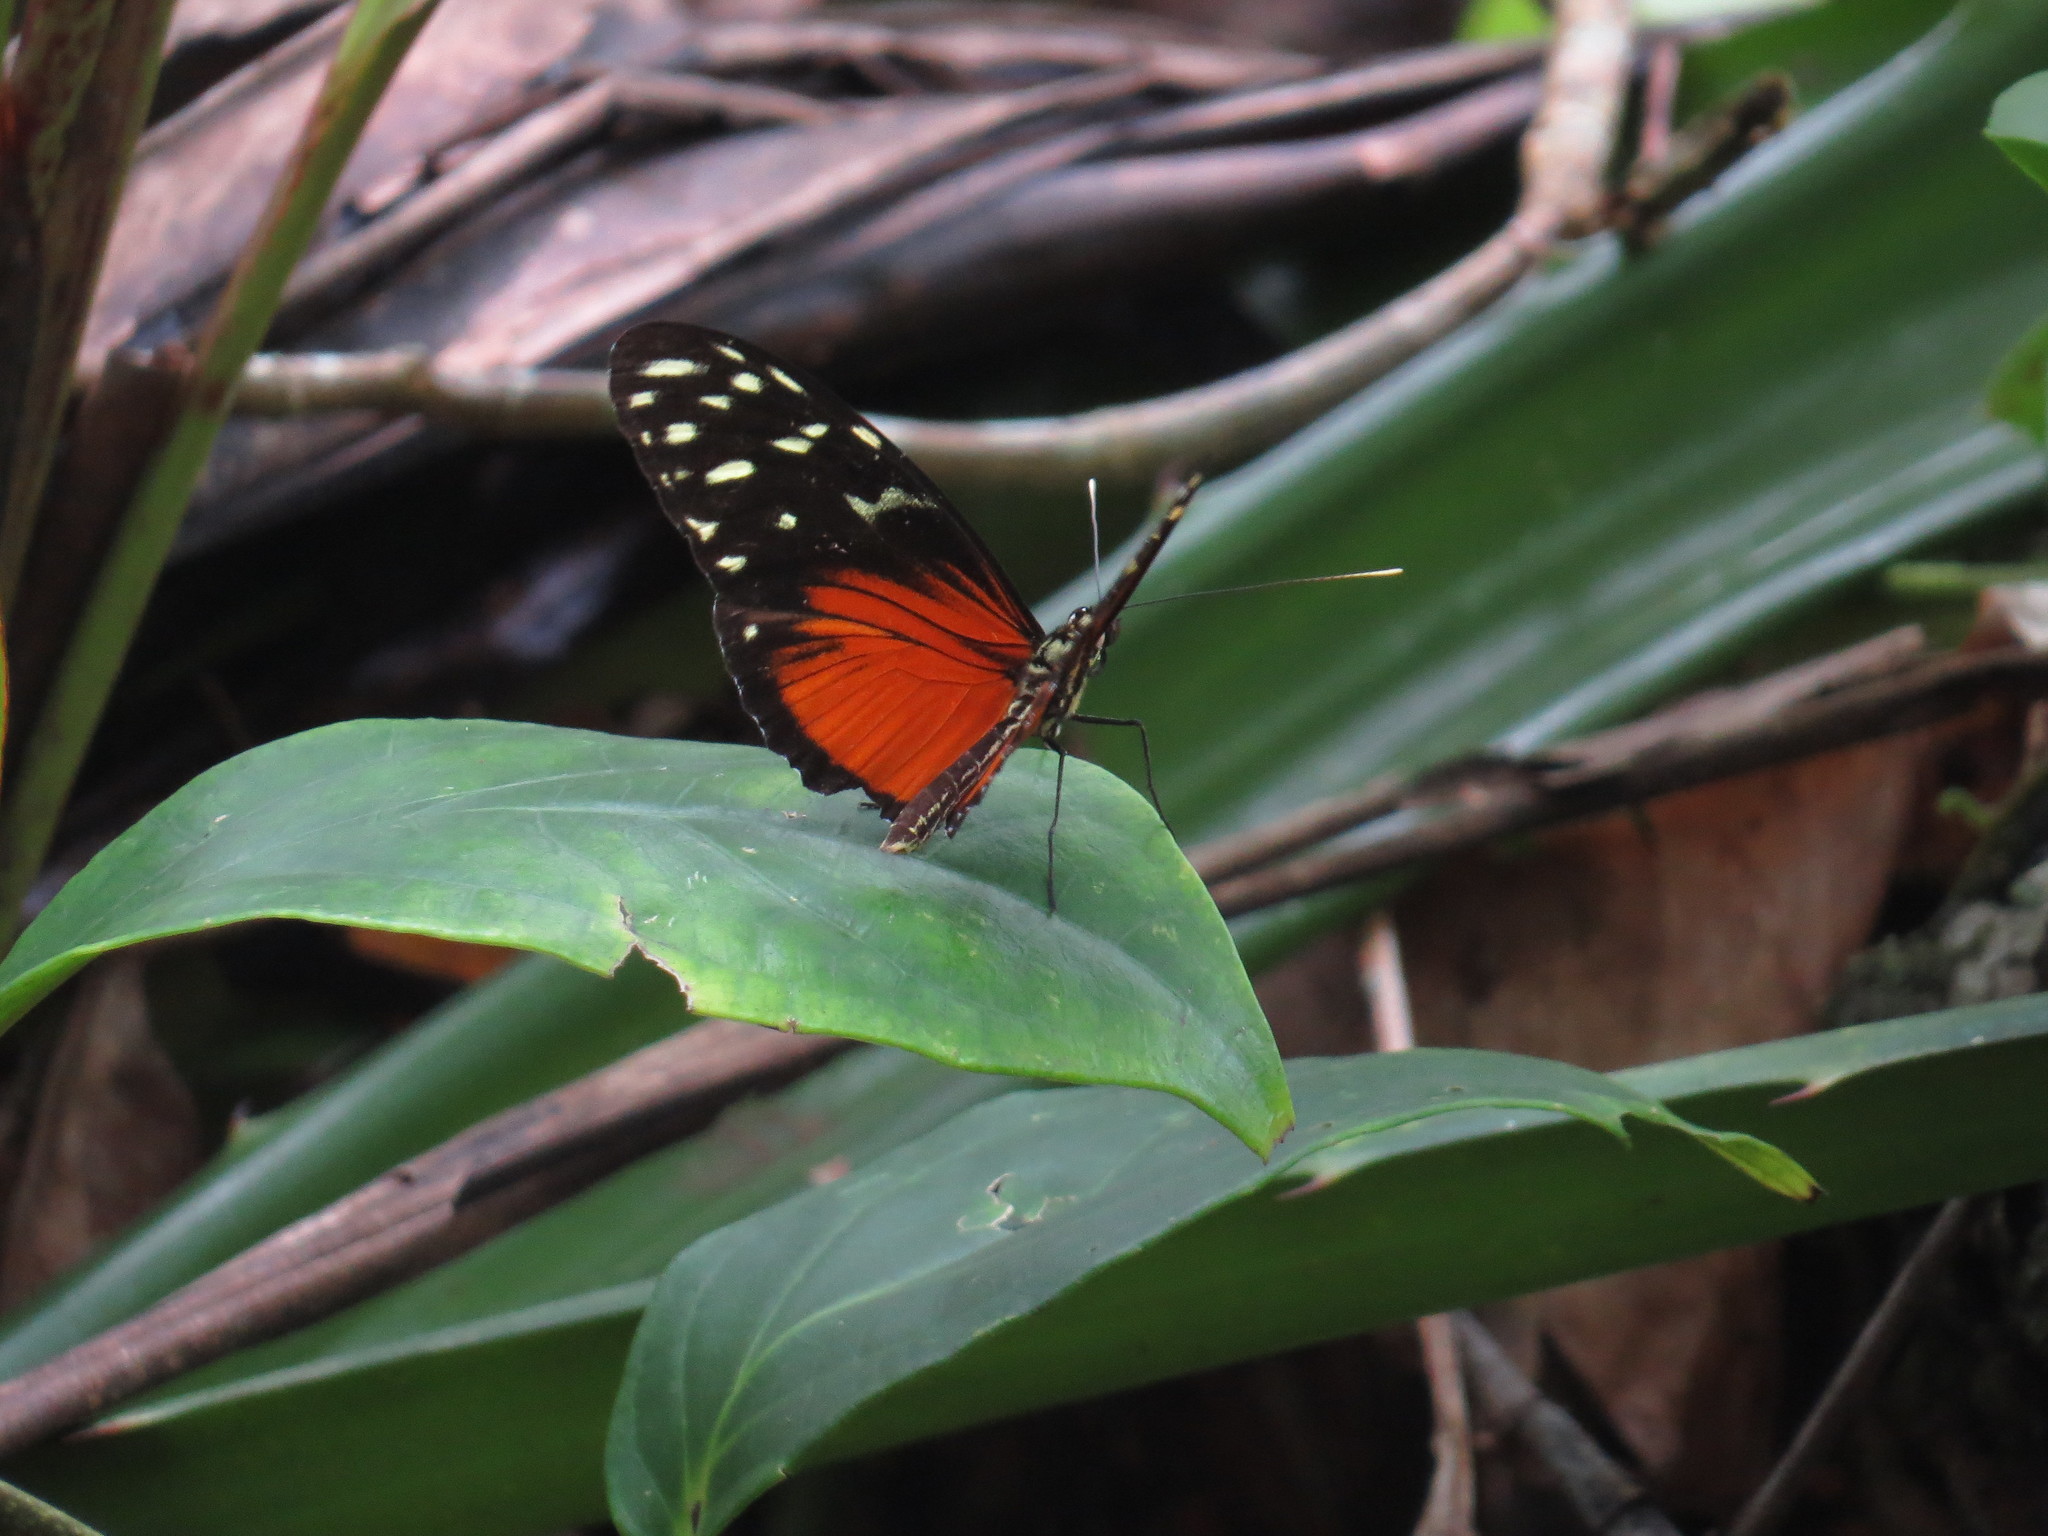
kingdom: Animalia
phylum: Arthropoda
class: Insecta
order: Lepidoptera
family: Nymphalidae
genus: Heliconius
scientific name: Heliconius hecale
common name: Tiger longwing
